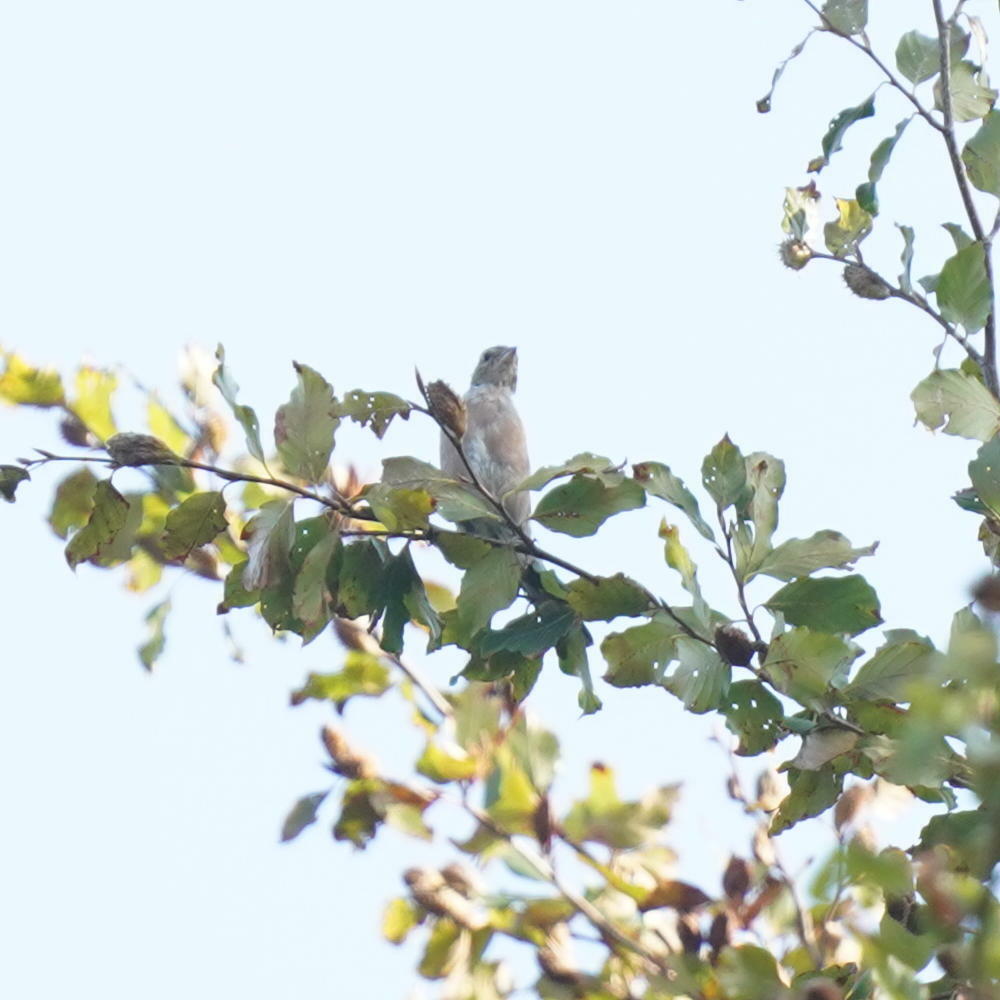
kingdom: Animalia
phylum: Chordata
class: Aves
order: Passeriformes
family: Fringillidae
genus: Fringilla
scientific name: Fringilla coelebs
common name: Common chaffinch
